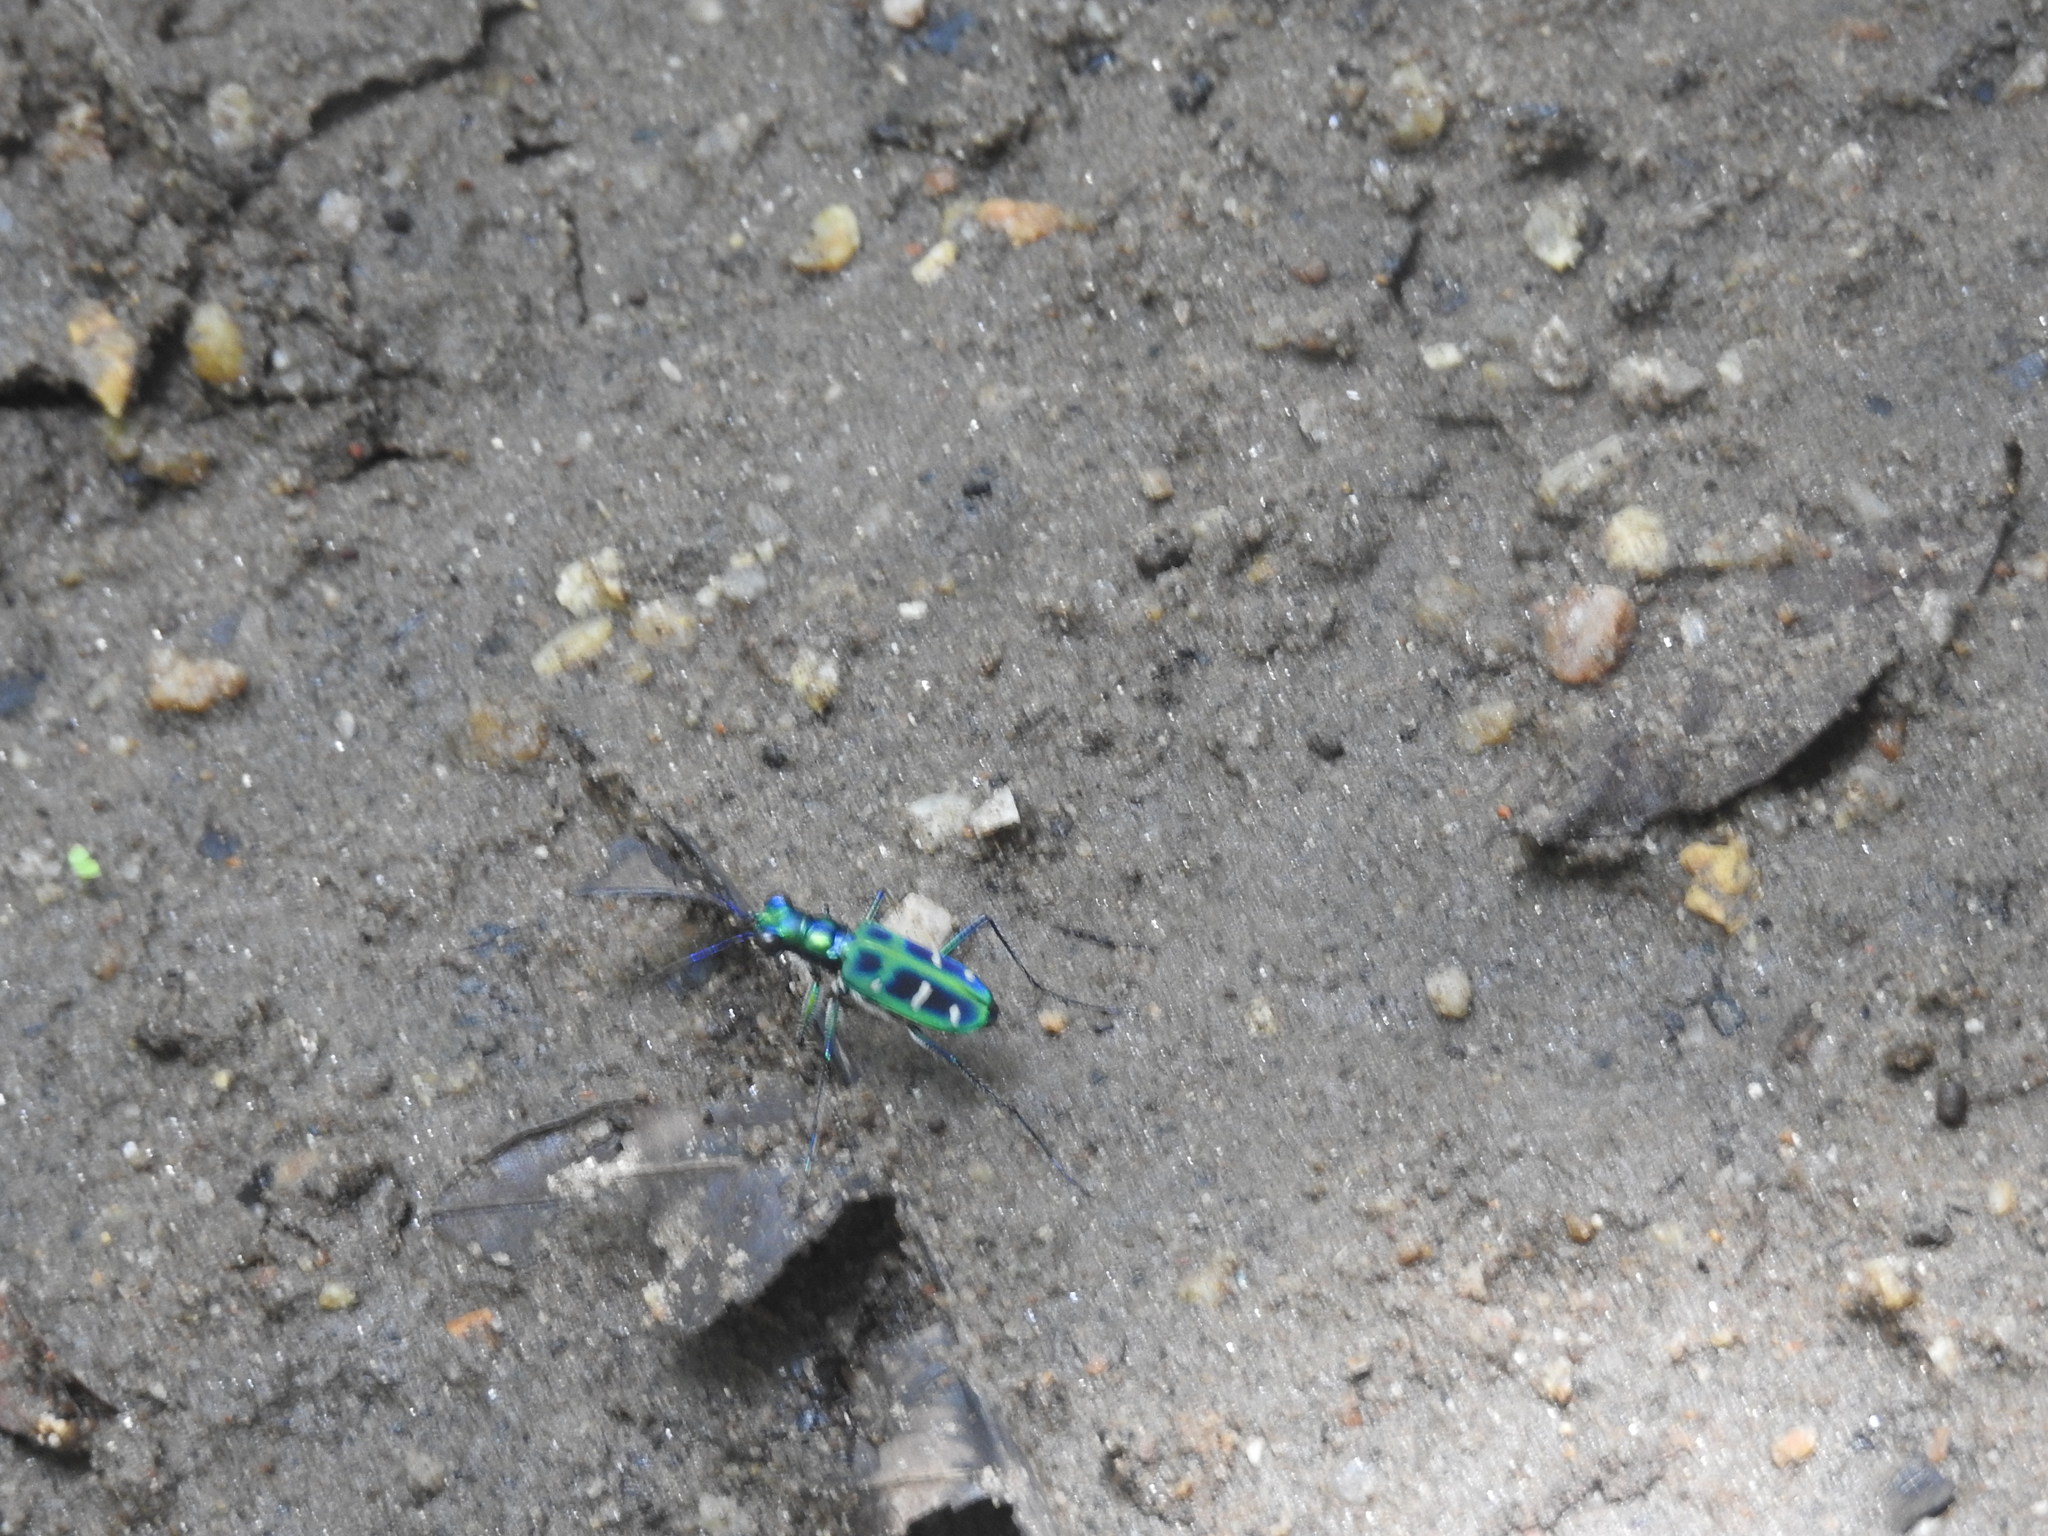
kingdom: Animalia
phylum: Arthropoda
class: Insecta
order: Coleoptera
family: Carabidae
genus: Cicindela
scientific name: Cicindela barmanica
